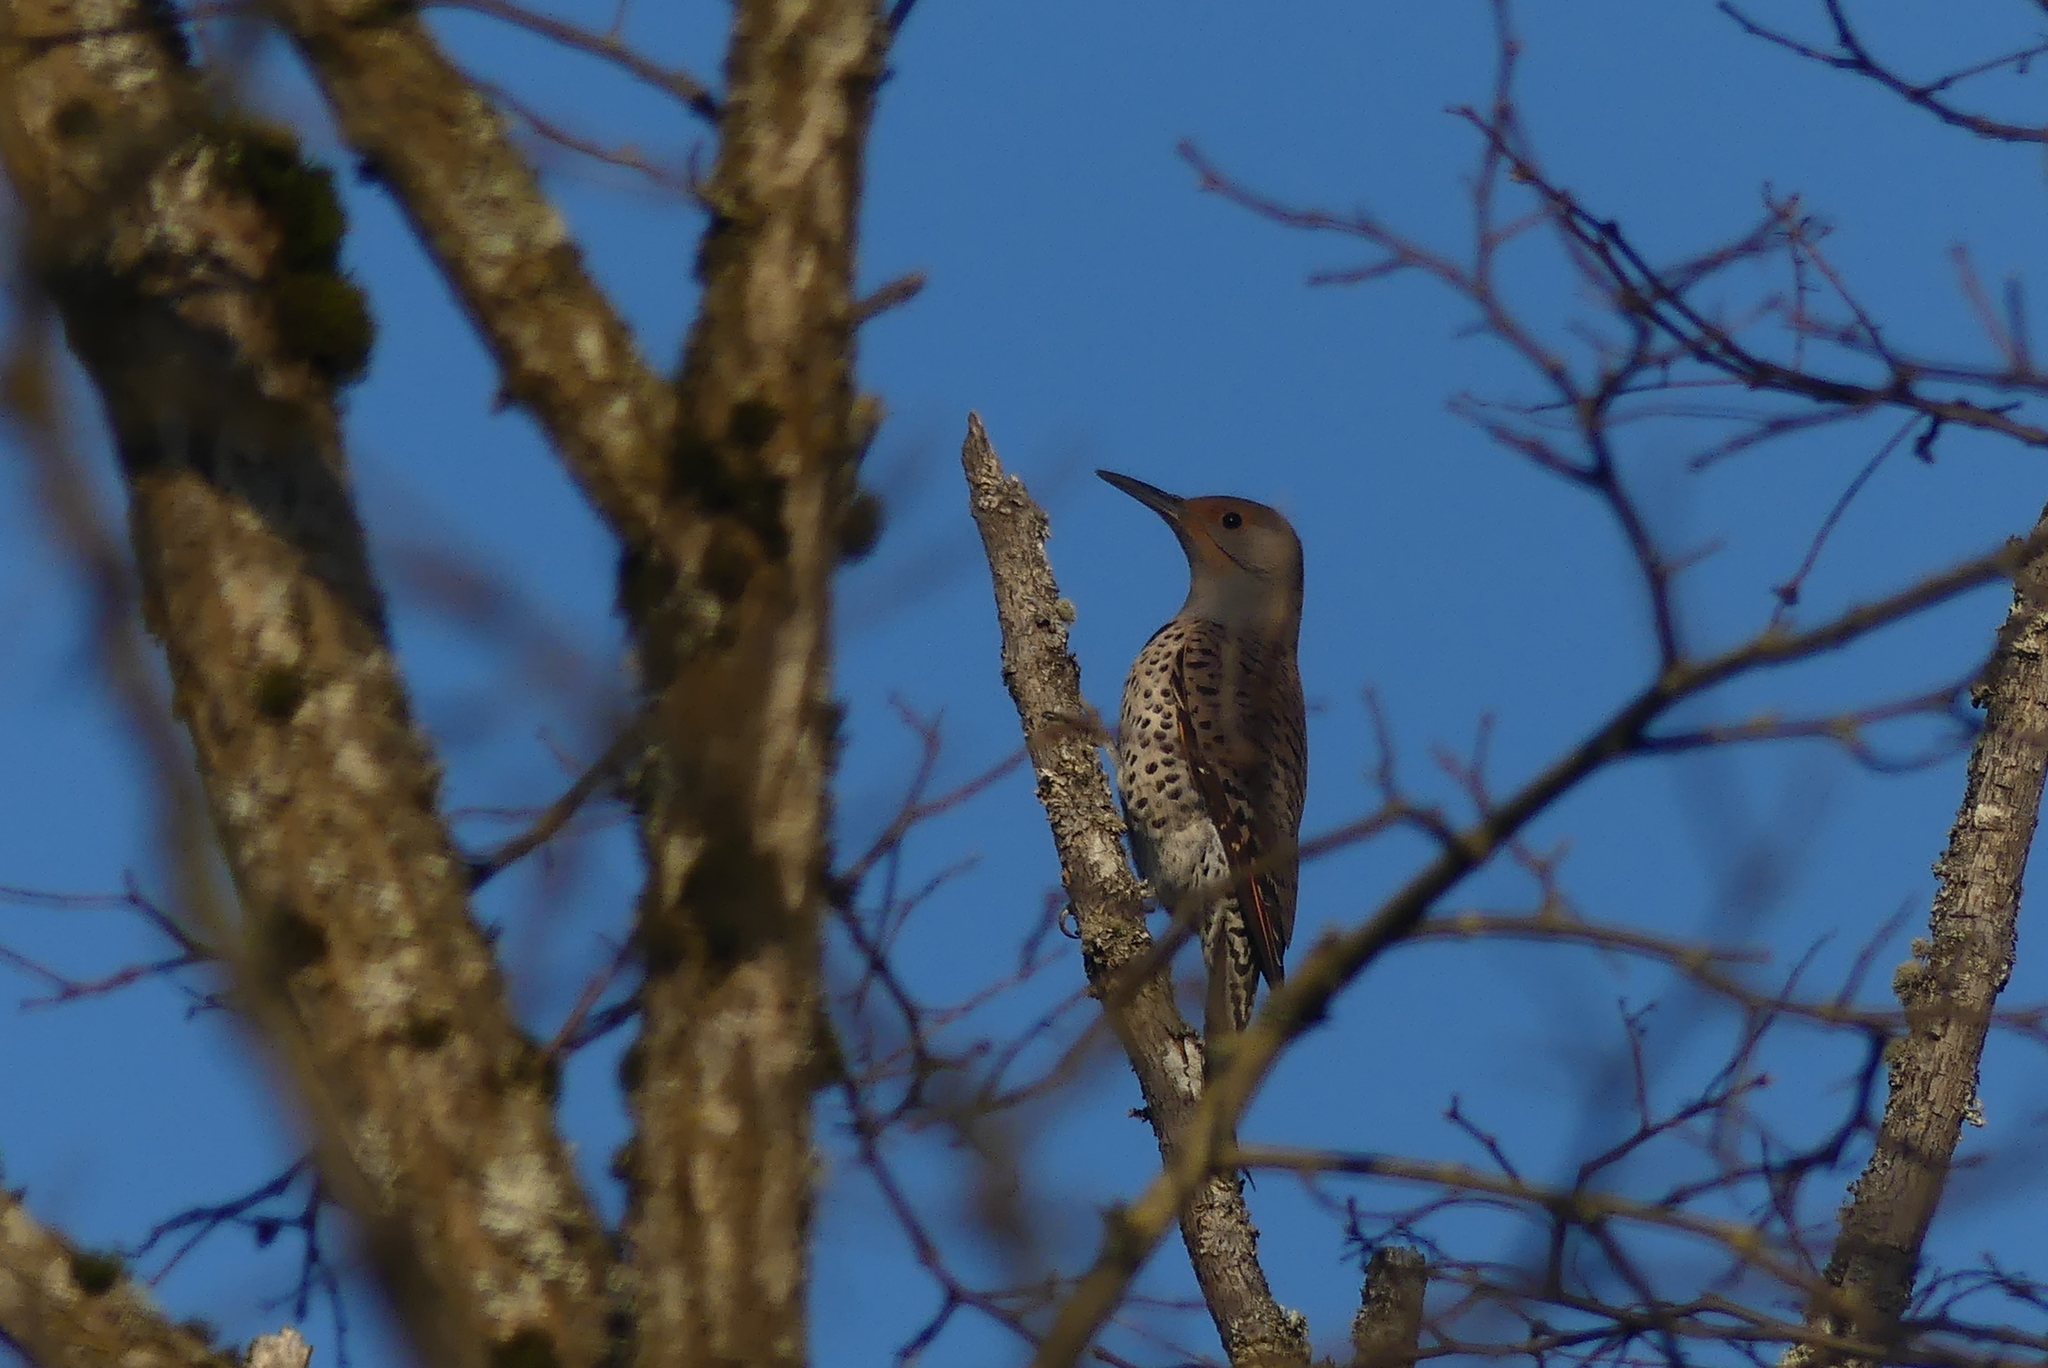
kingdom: Animalia
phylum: Chordata
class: Aves
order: Piciformes
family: Picidae
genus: Colaptes
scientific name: Colaptes auratus
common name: Northern flicker
